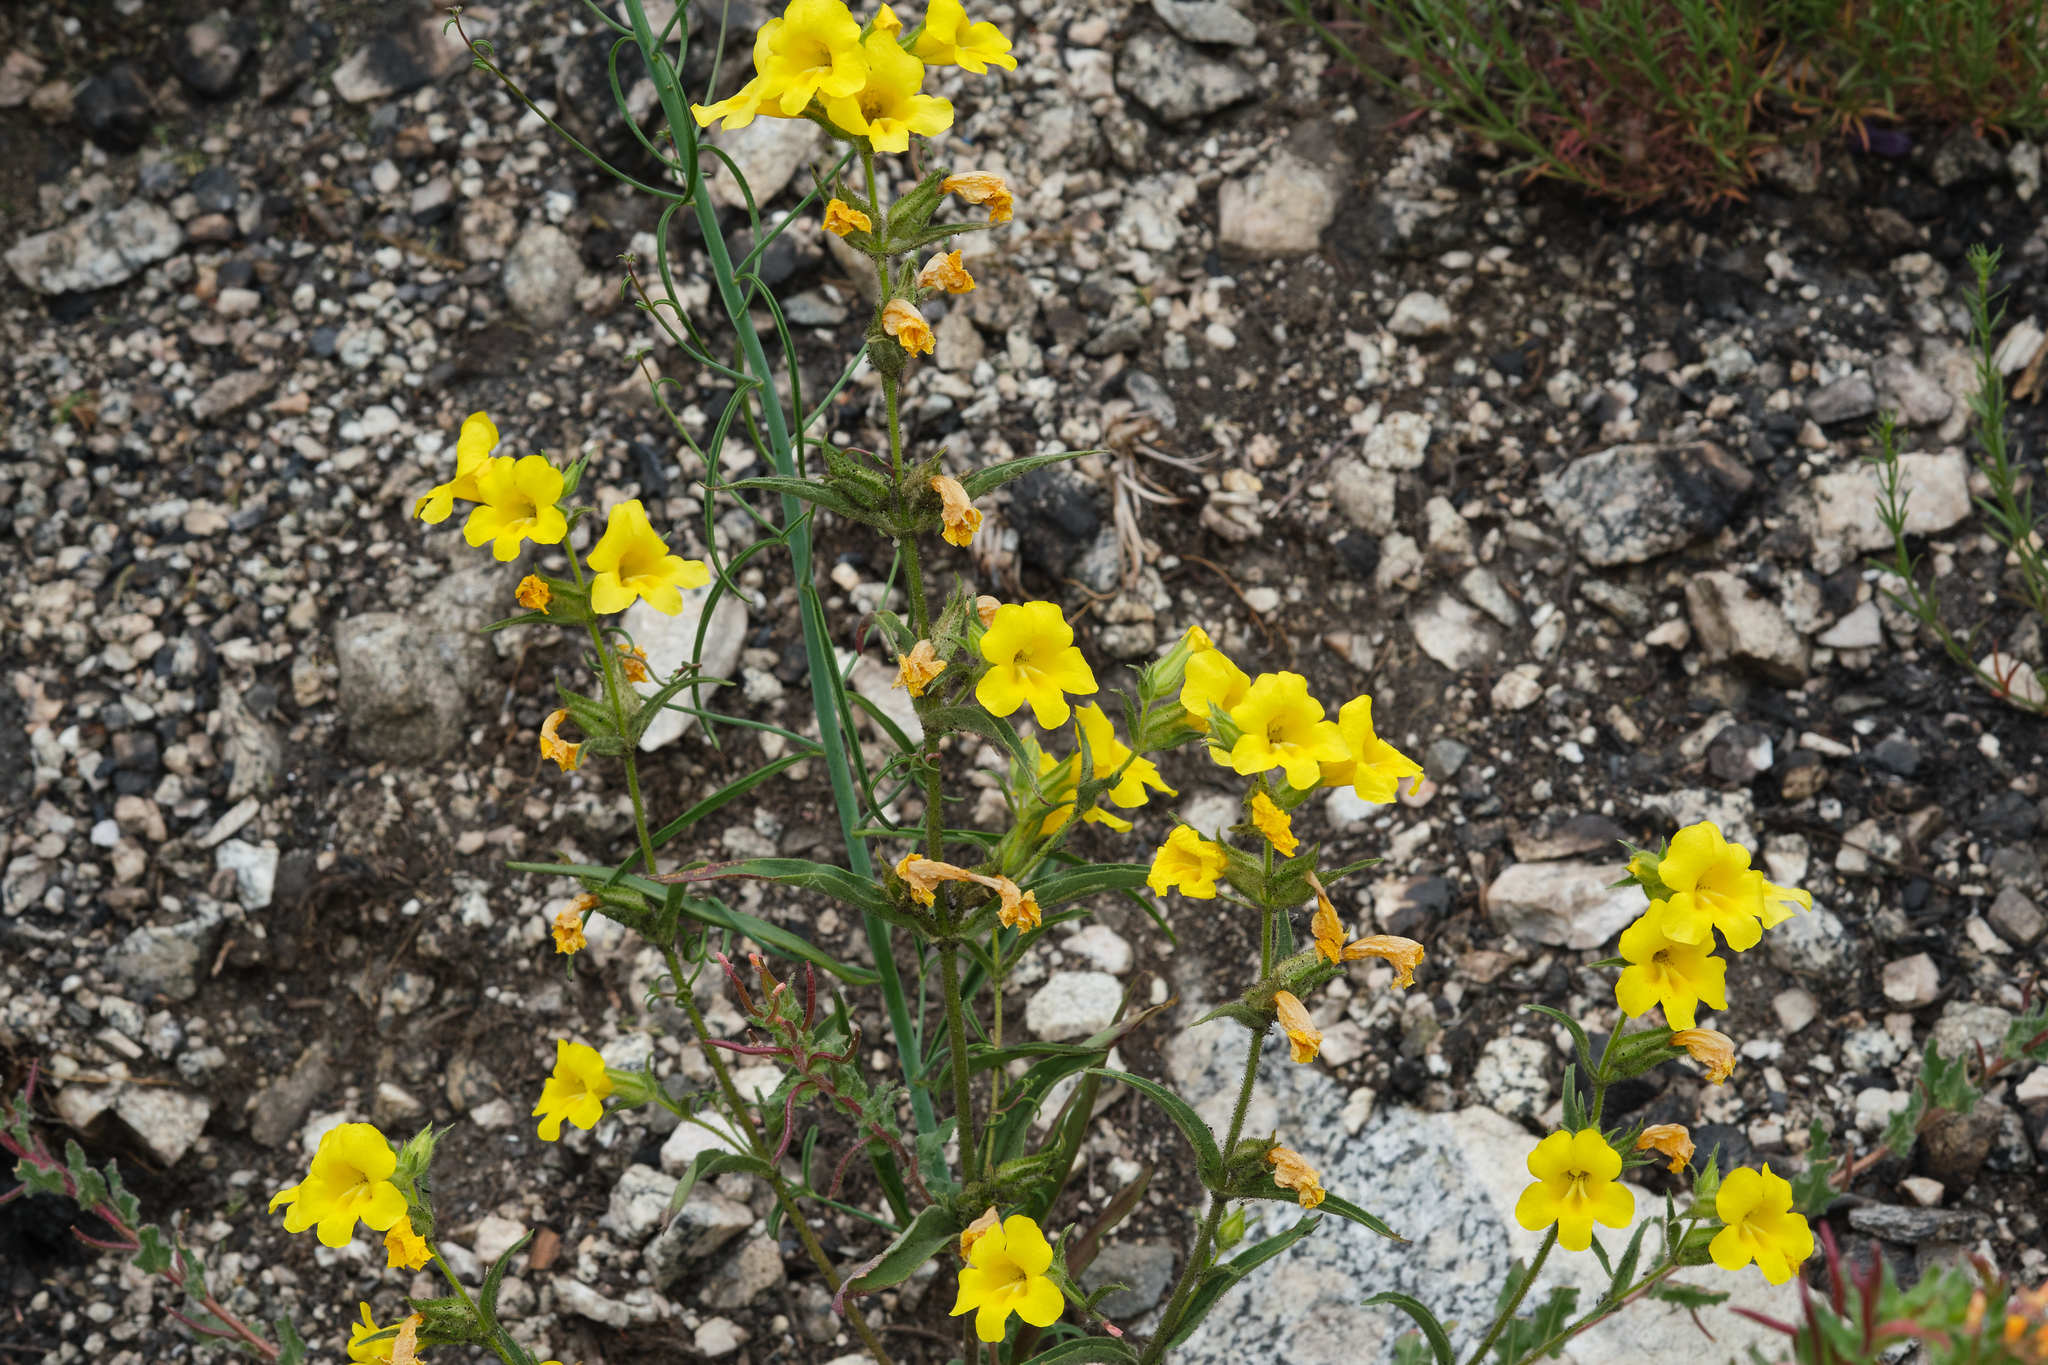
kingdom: Plantae
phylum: Tracheophyta
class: Magnoliopsida
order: Lamiales
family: Phrymaceae
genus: Diplacus
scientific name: Diplacus brevipes
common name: Wide-throat yellow monkey-flower
